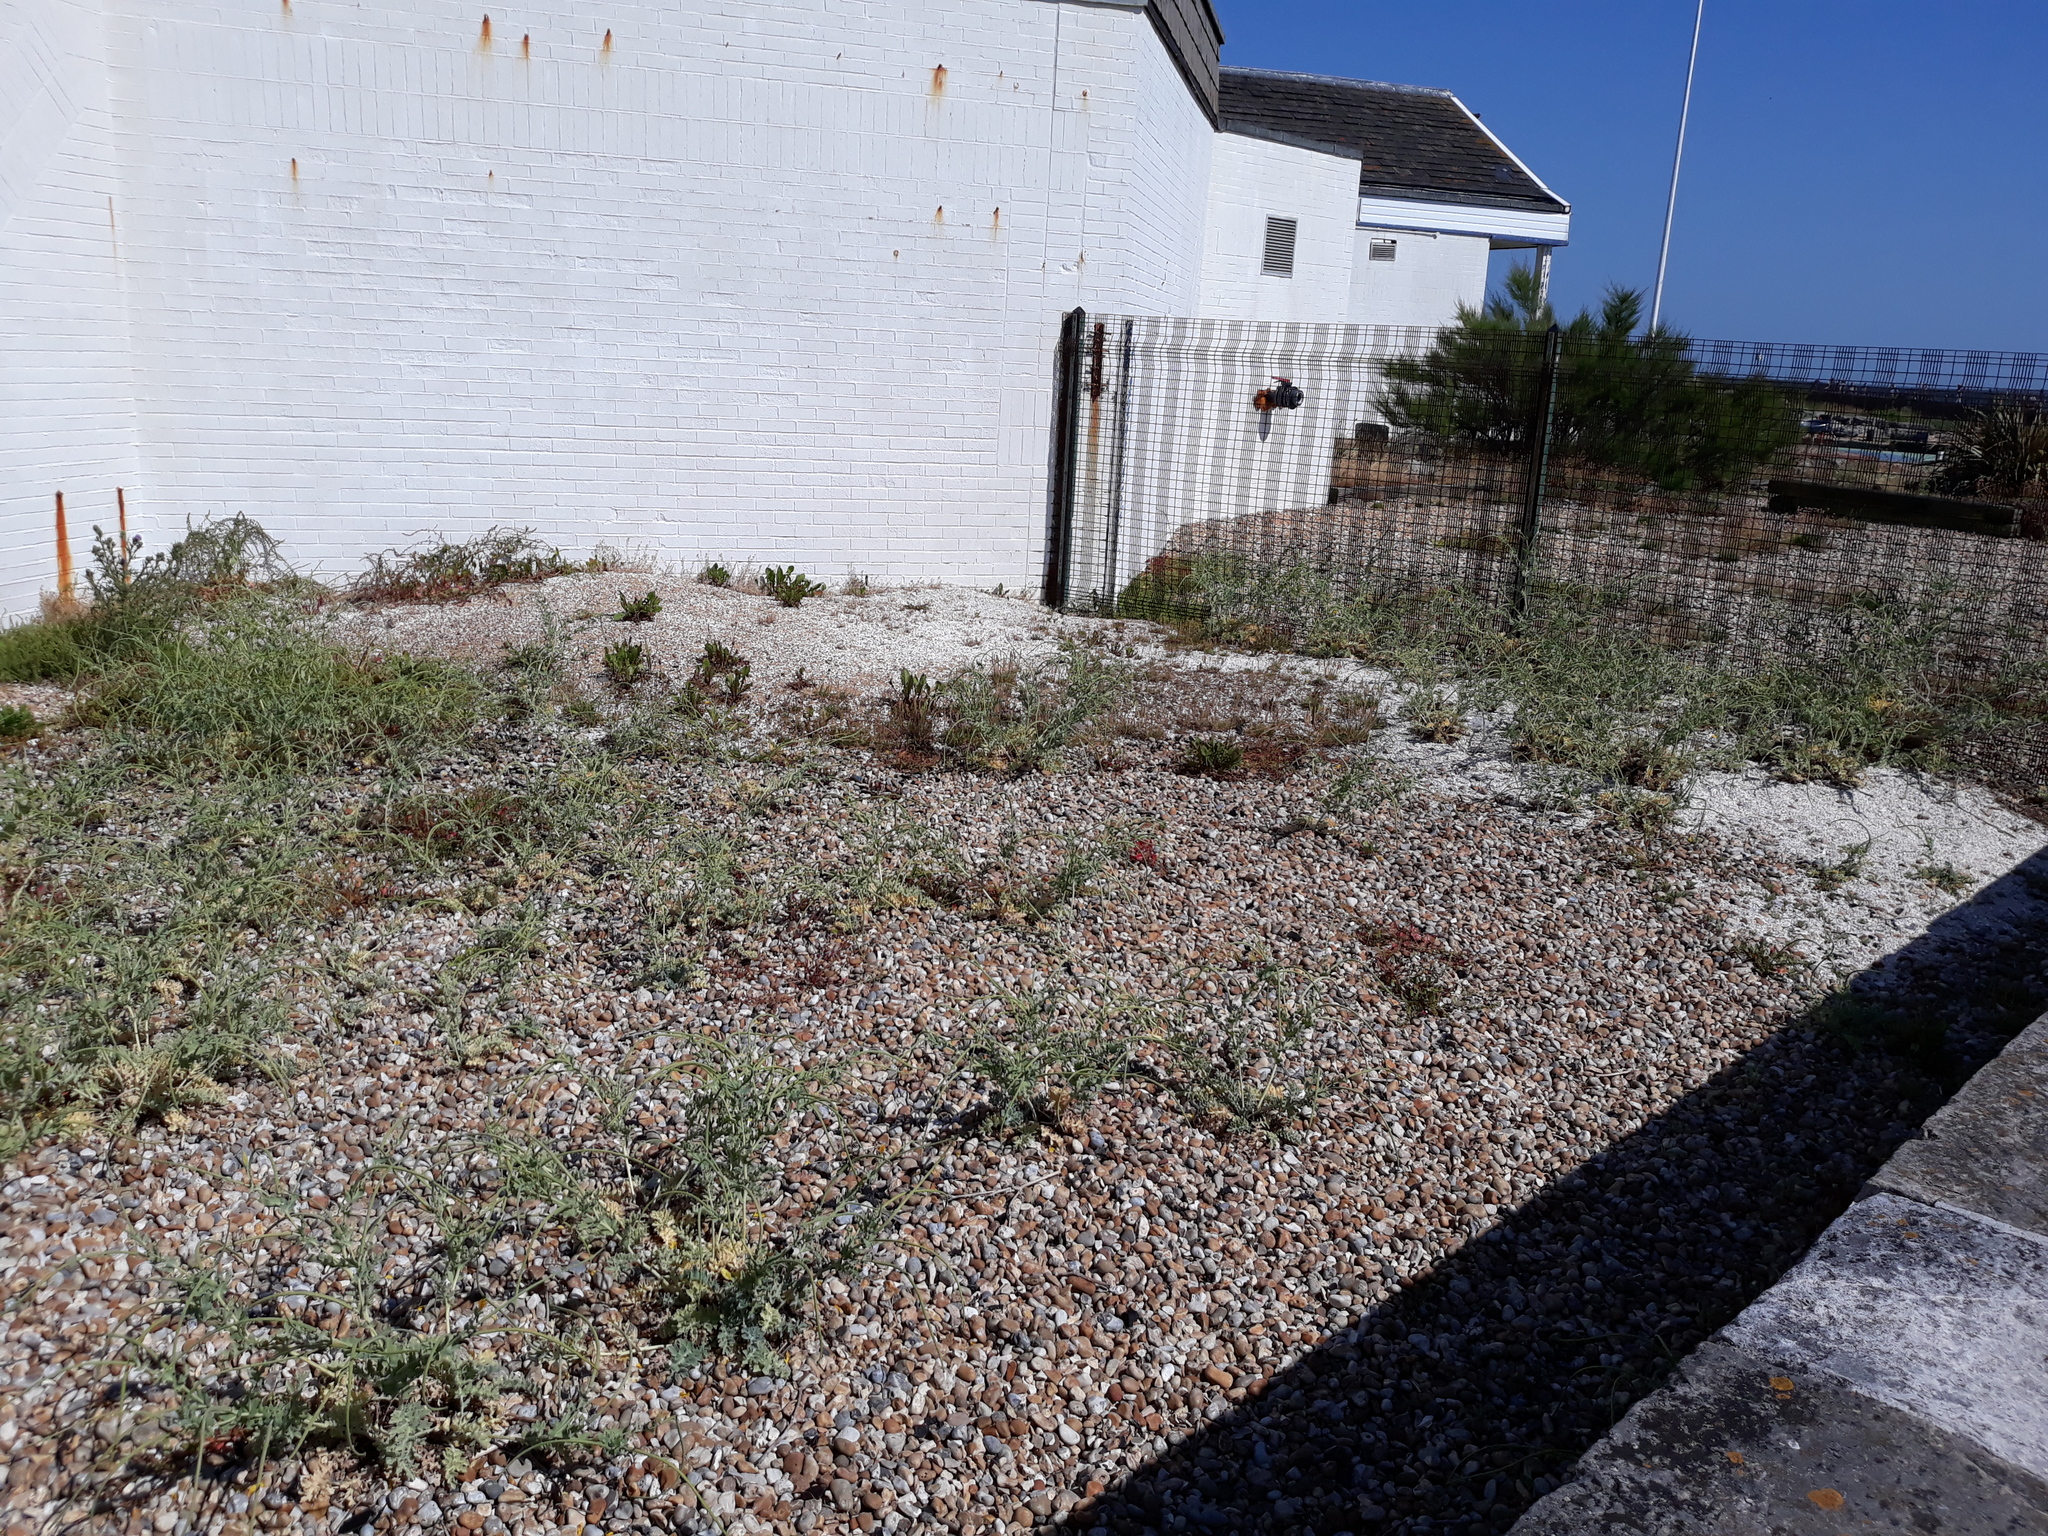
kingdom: Plantae
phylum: Tracheophyta
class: Magnoliopsida
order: Ranunculales
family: Papaveraceae
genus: Glaucium
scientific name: Glaucium flavum
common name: Yellow horned-poppy
